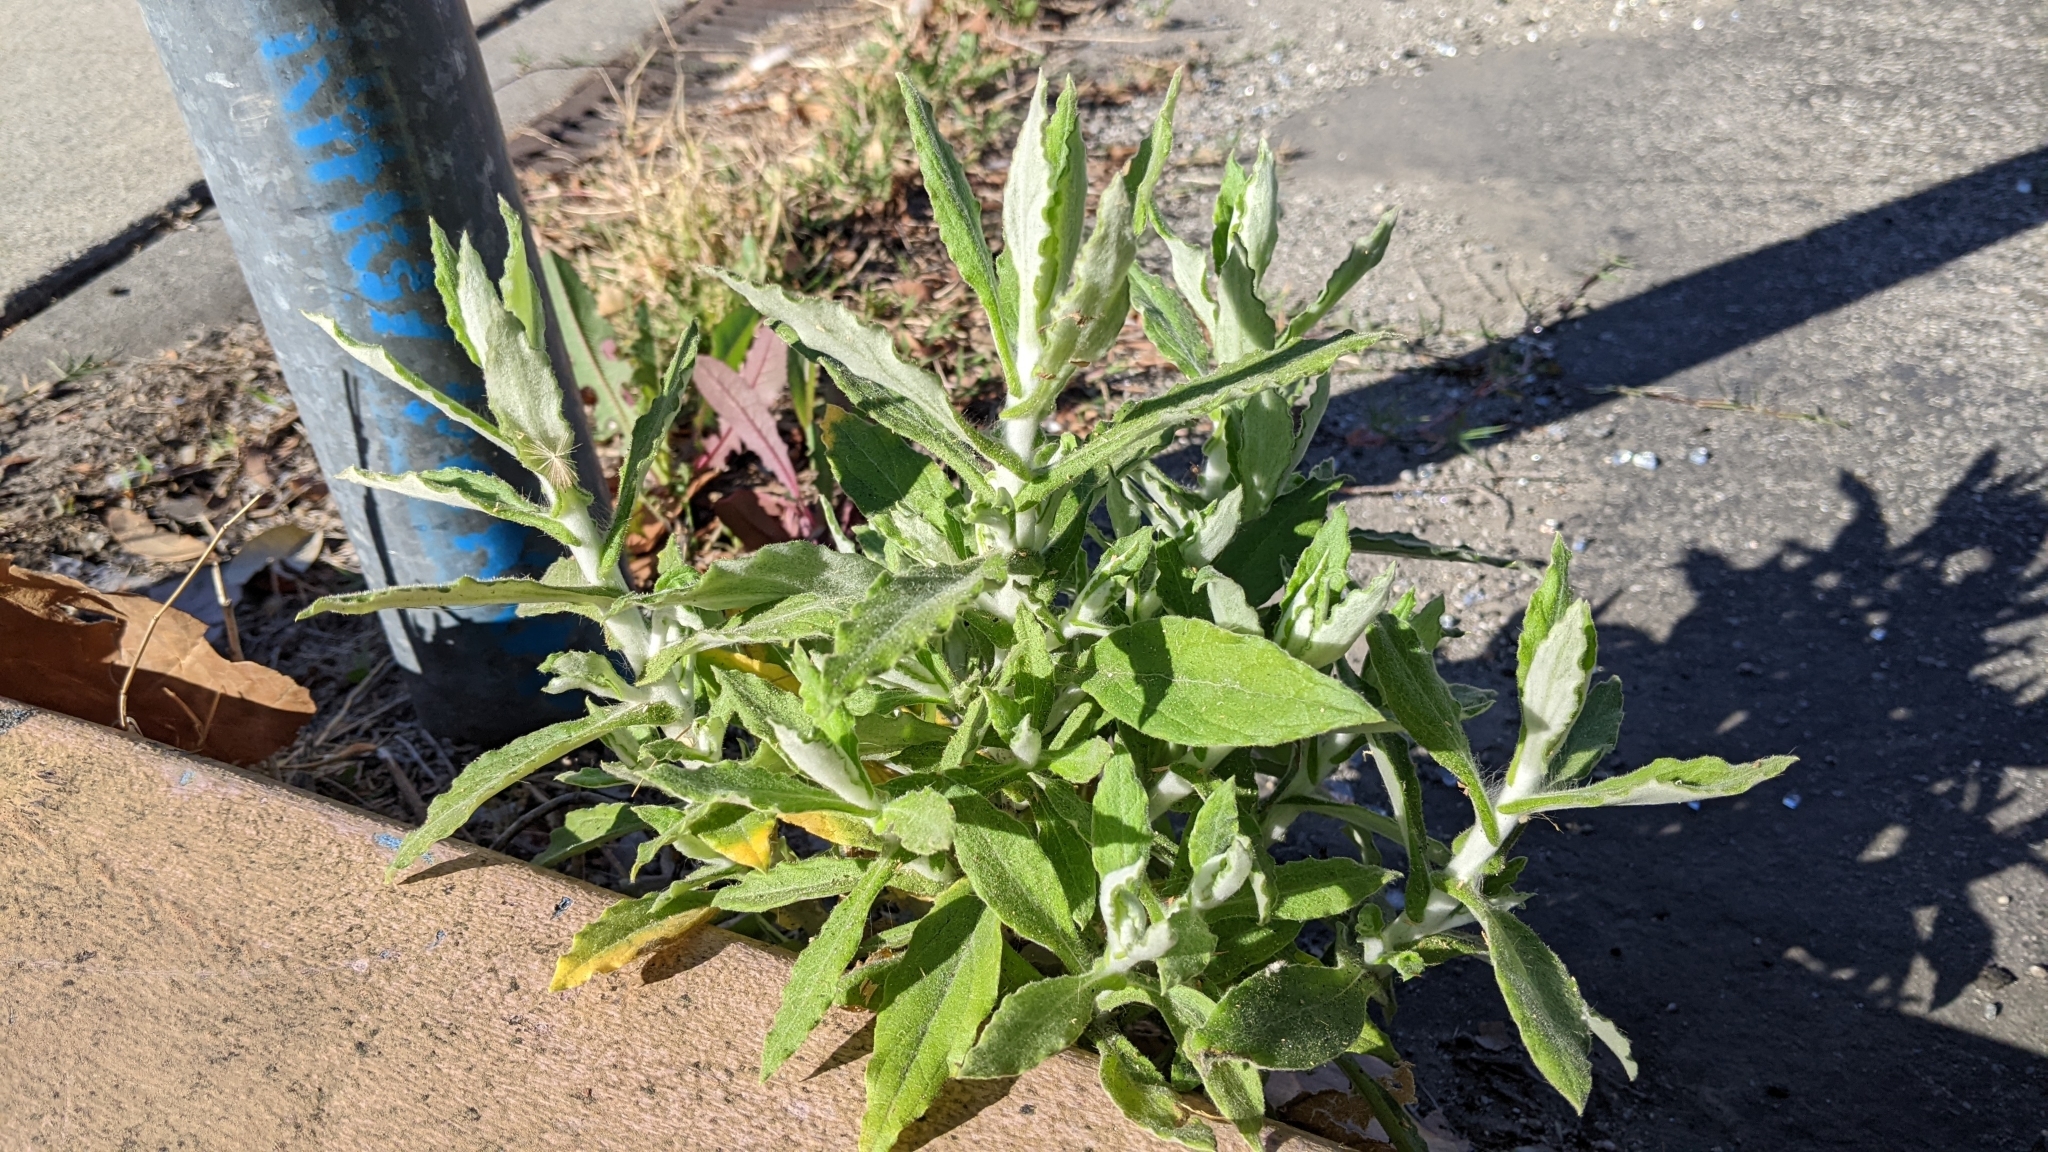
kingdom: Plantae
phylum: Tracheophyta
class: Magnoliopsida
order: Asterales
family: Asteraceae
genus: Pseudognaphalium
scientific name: Pseudognaphalium biolettii
